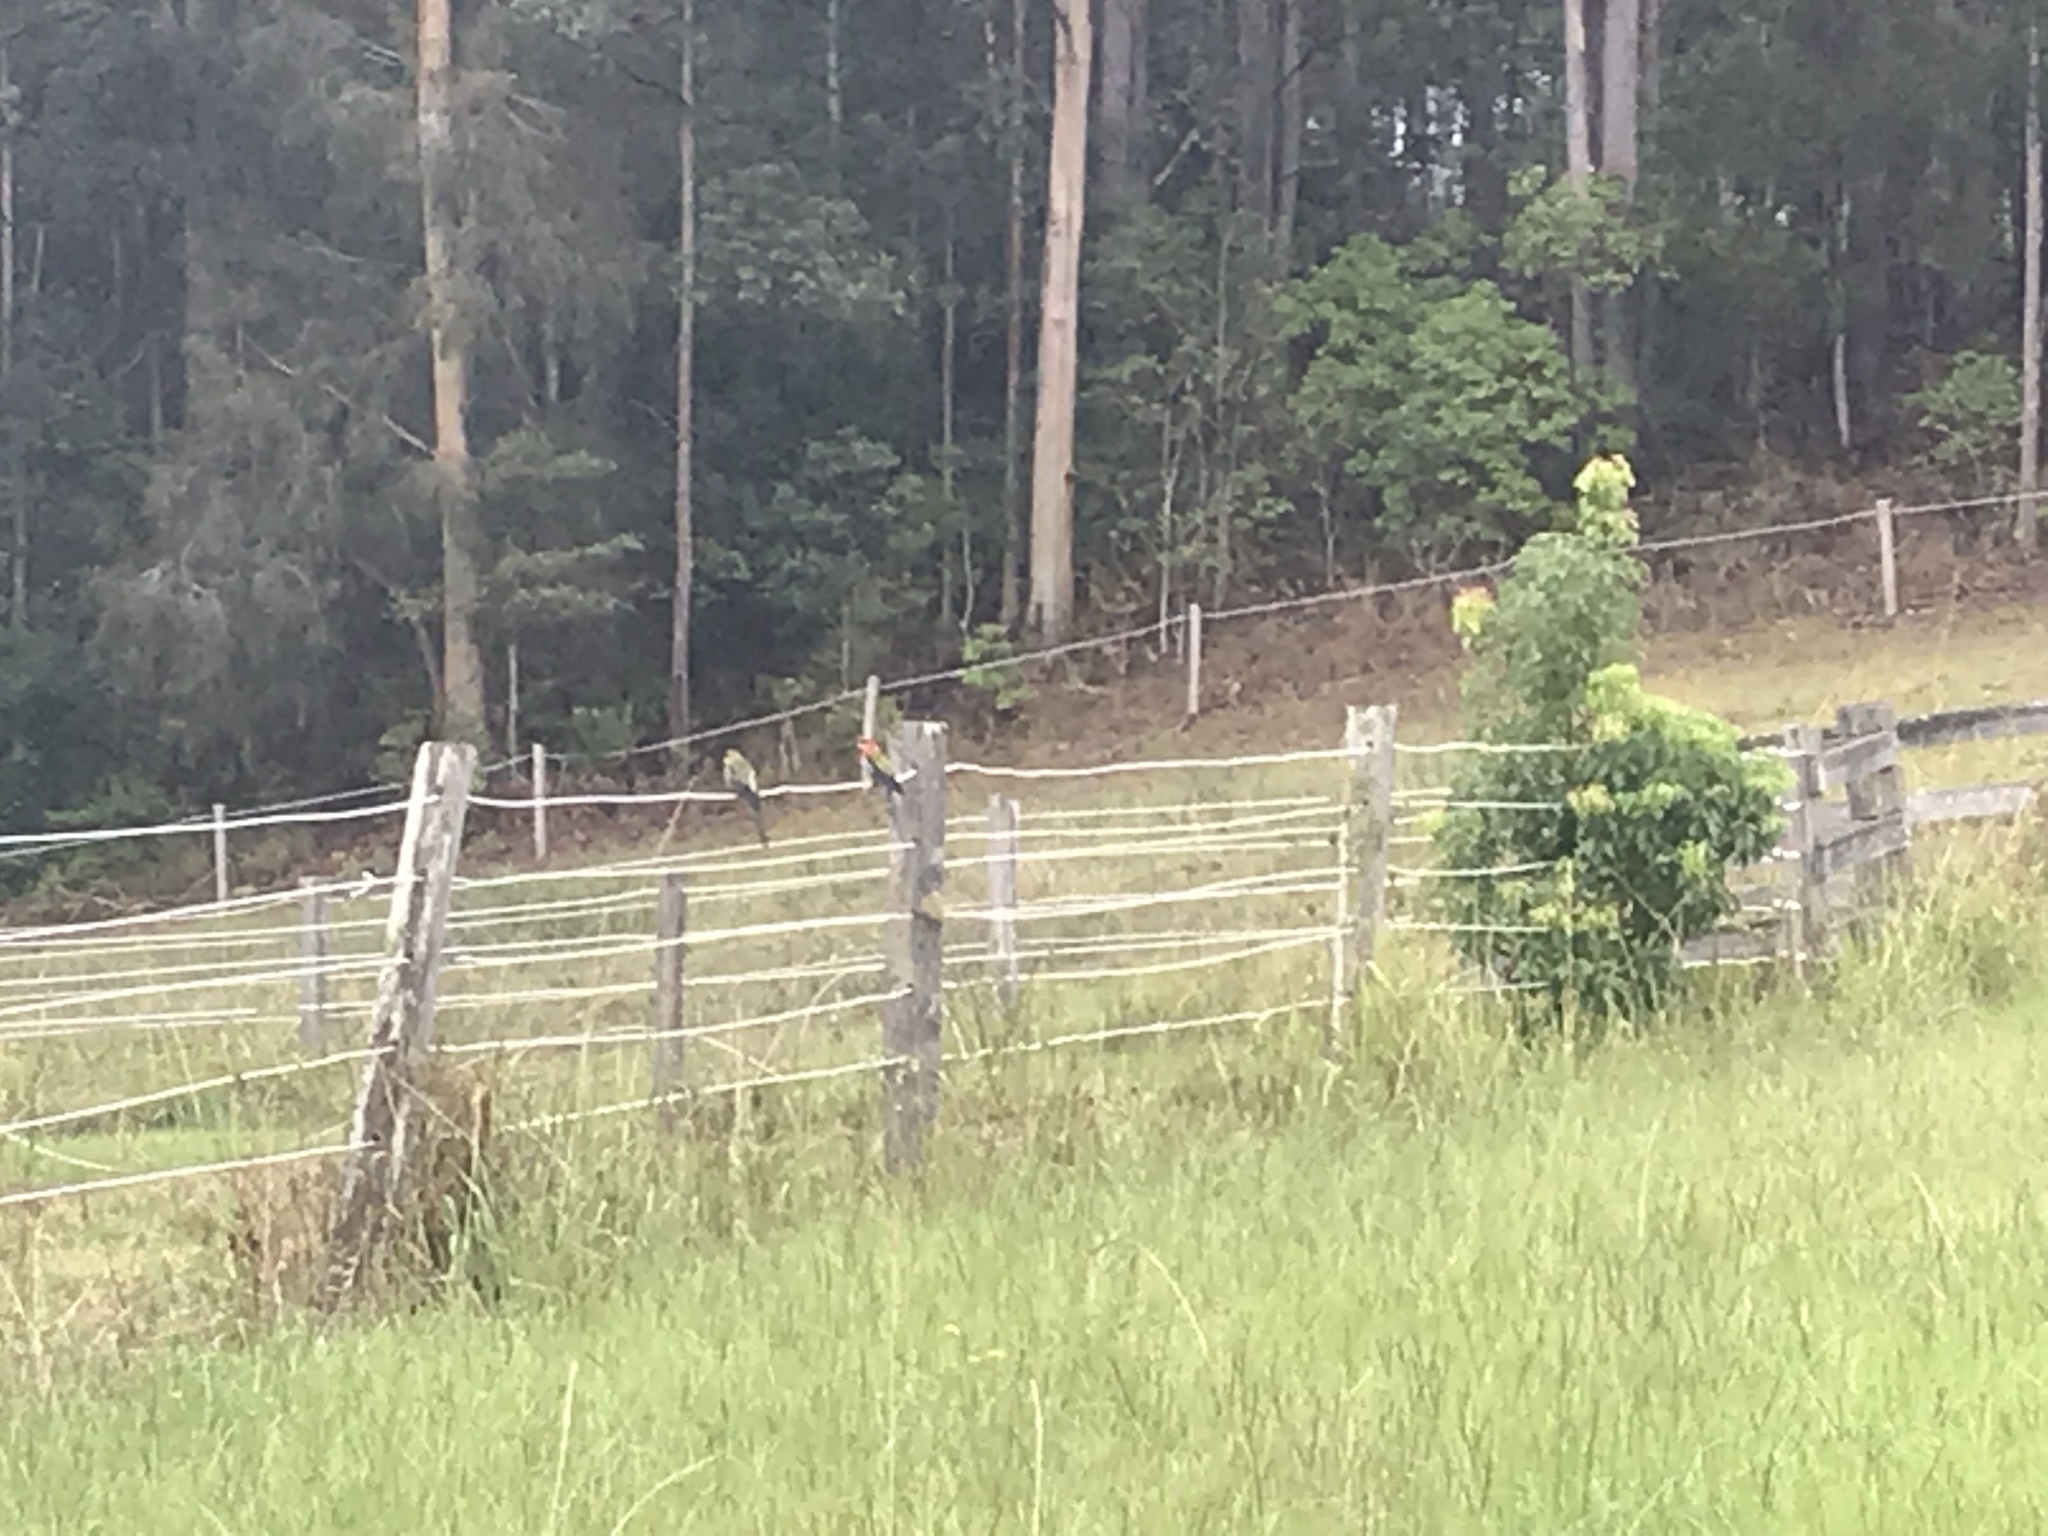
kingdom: Animalia
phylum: Chordata
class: Aves
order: Psittaciformes
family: Psittacidae
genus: Platycercus
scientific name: Platycercus eximius
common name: Eastern rosella
